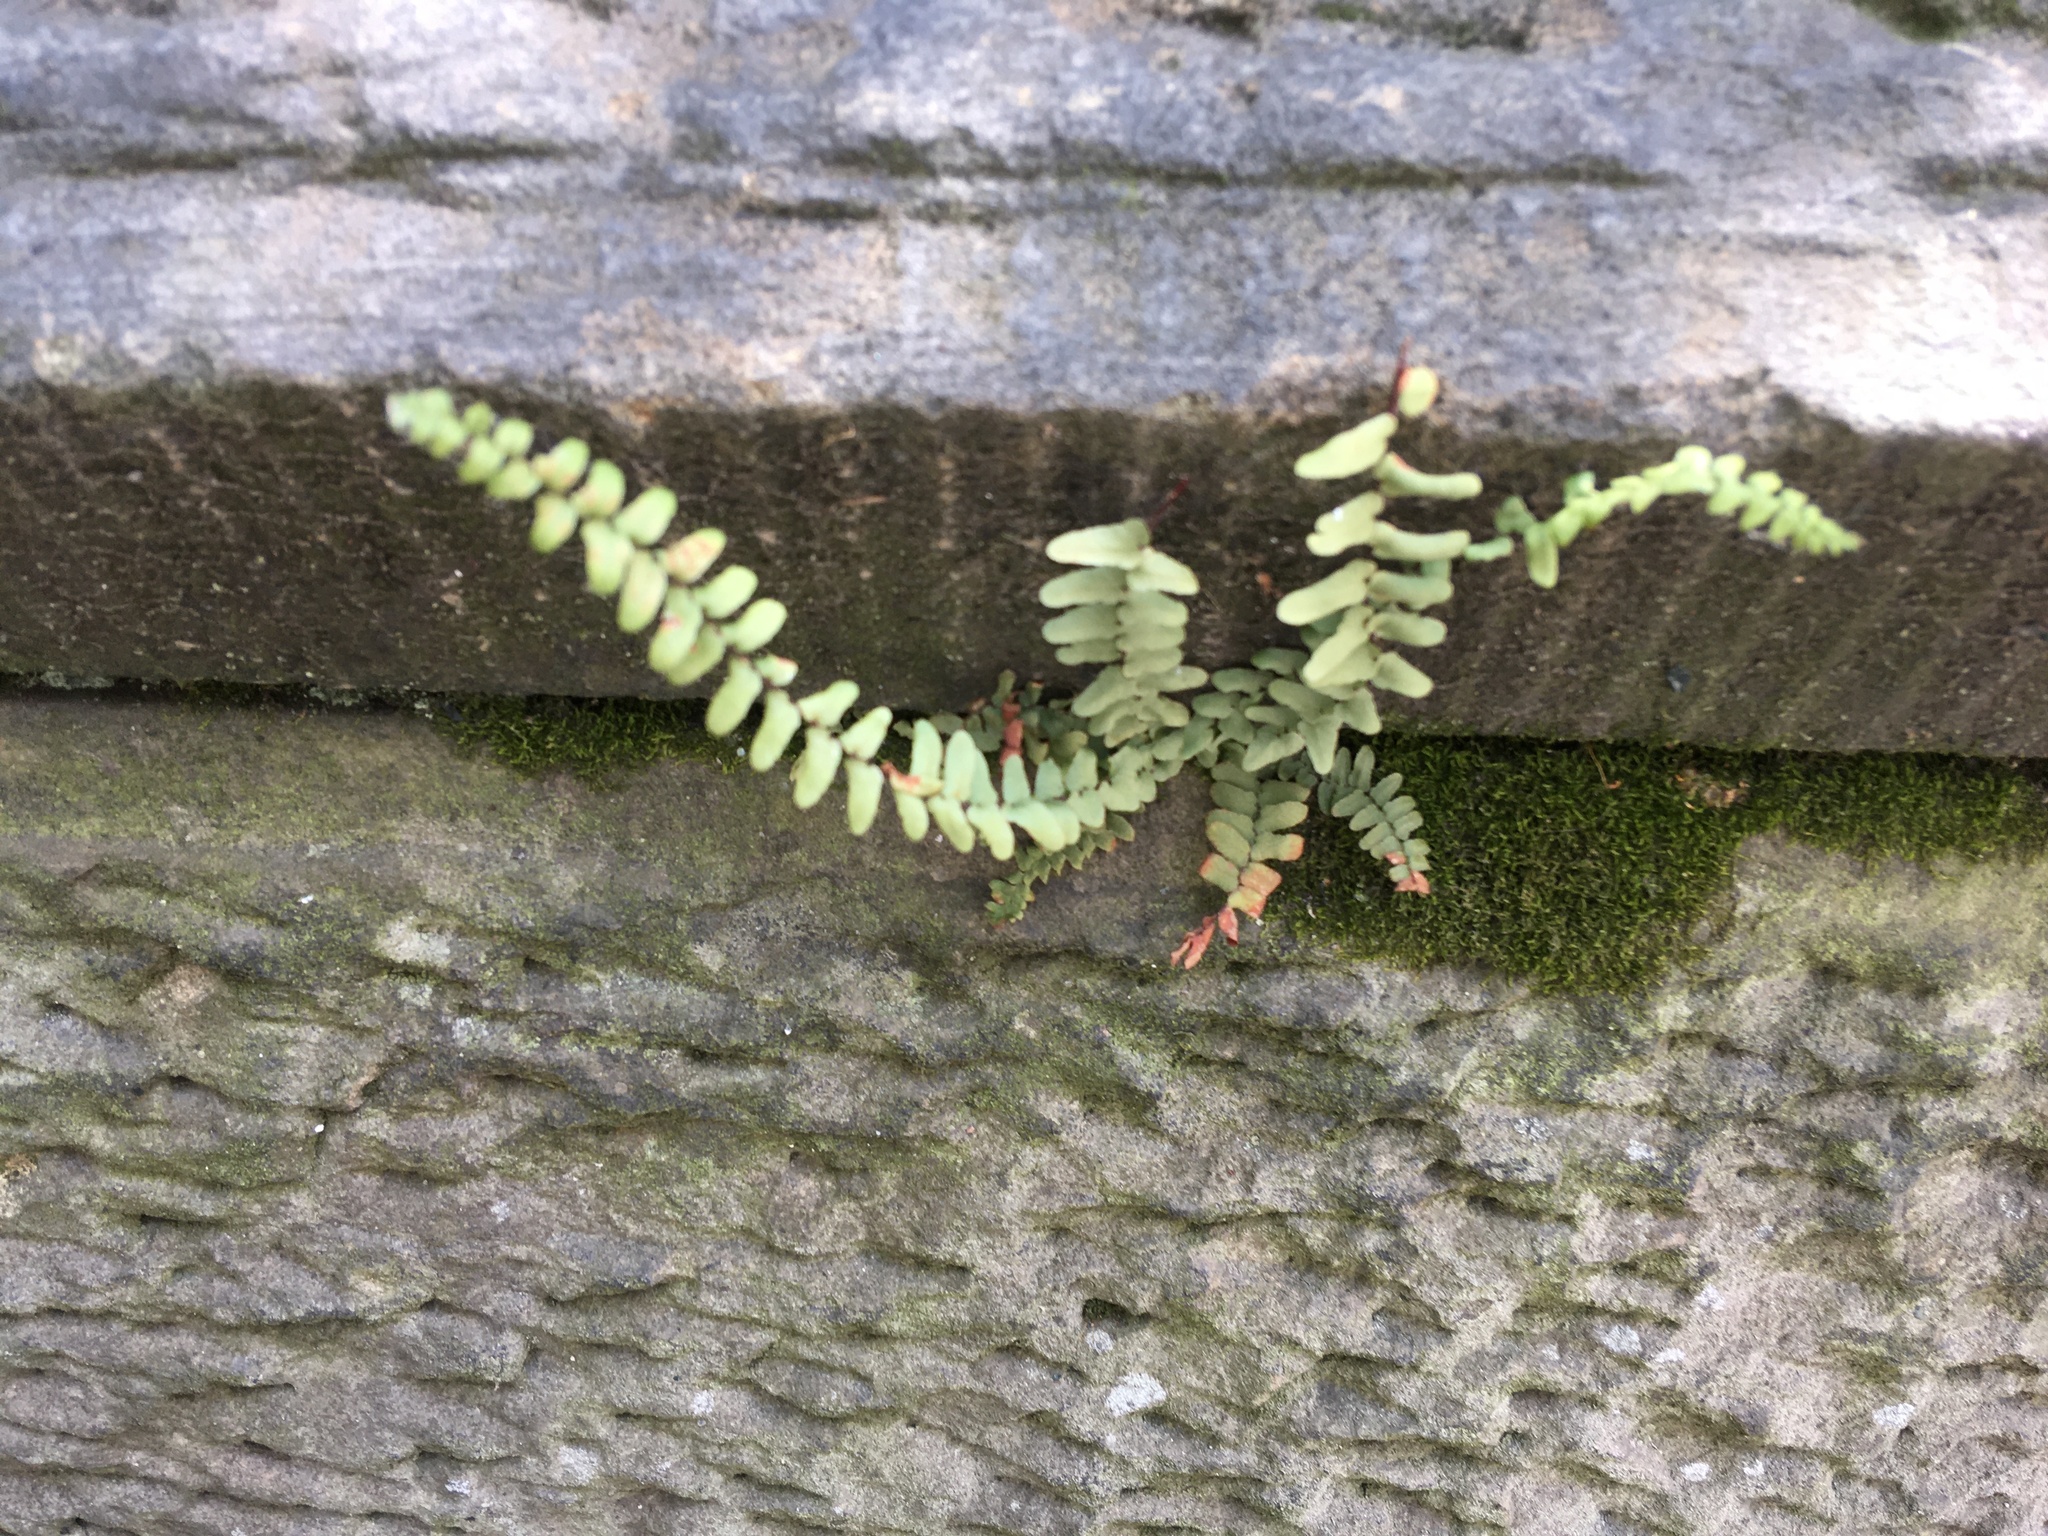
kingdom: Plantae
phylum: Tracheophyta
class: Polypodiopsida
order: Polypodiales
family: Aspleniaceae
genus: Asplenium
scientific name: Asplenium platyneuron
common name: Ebony spleenwort
